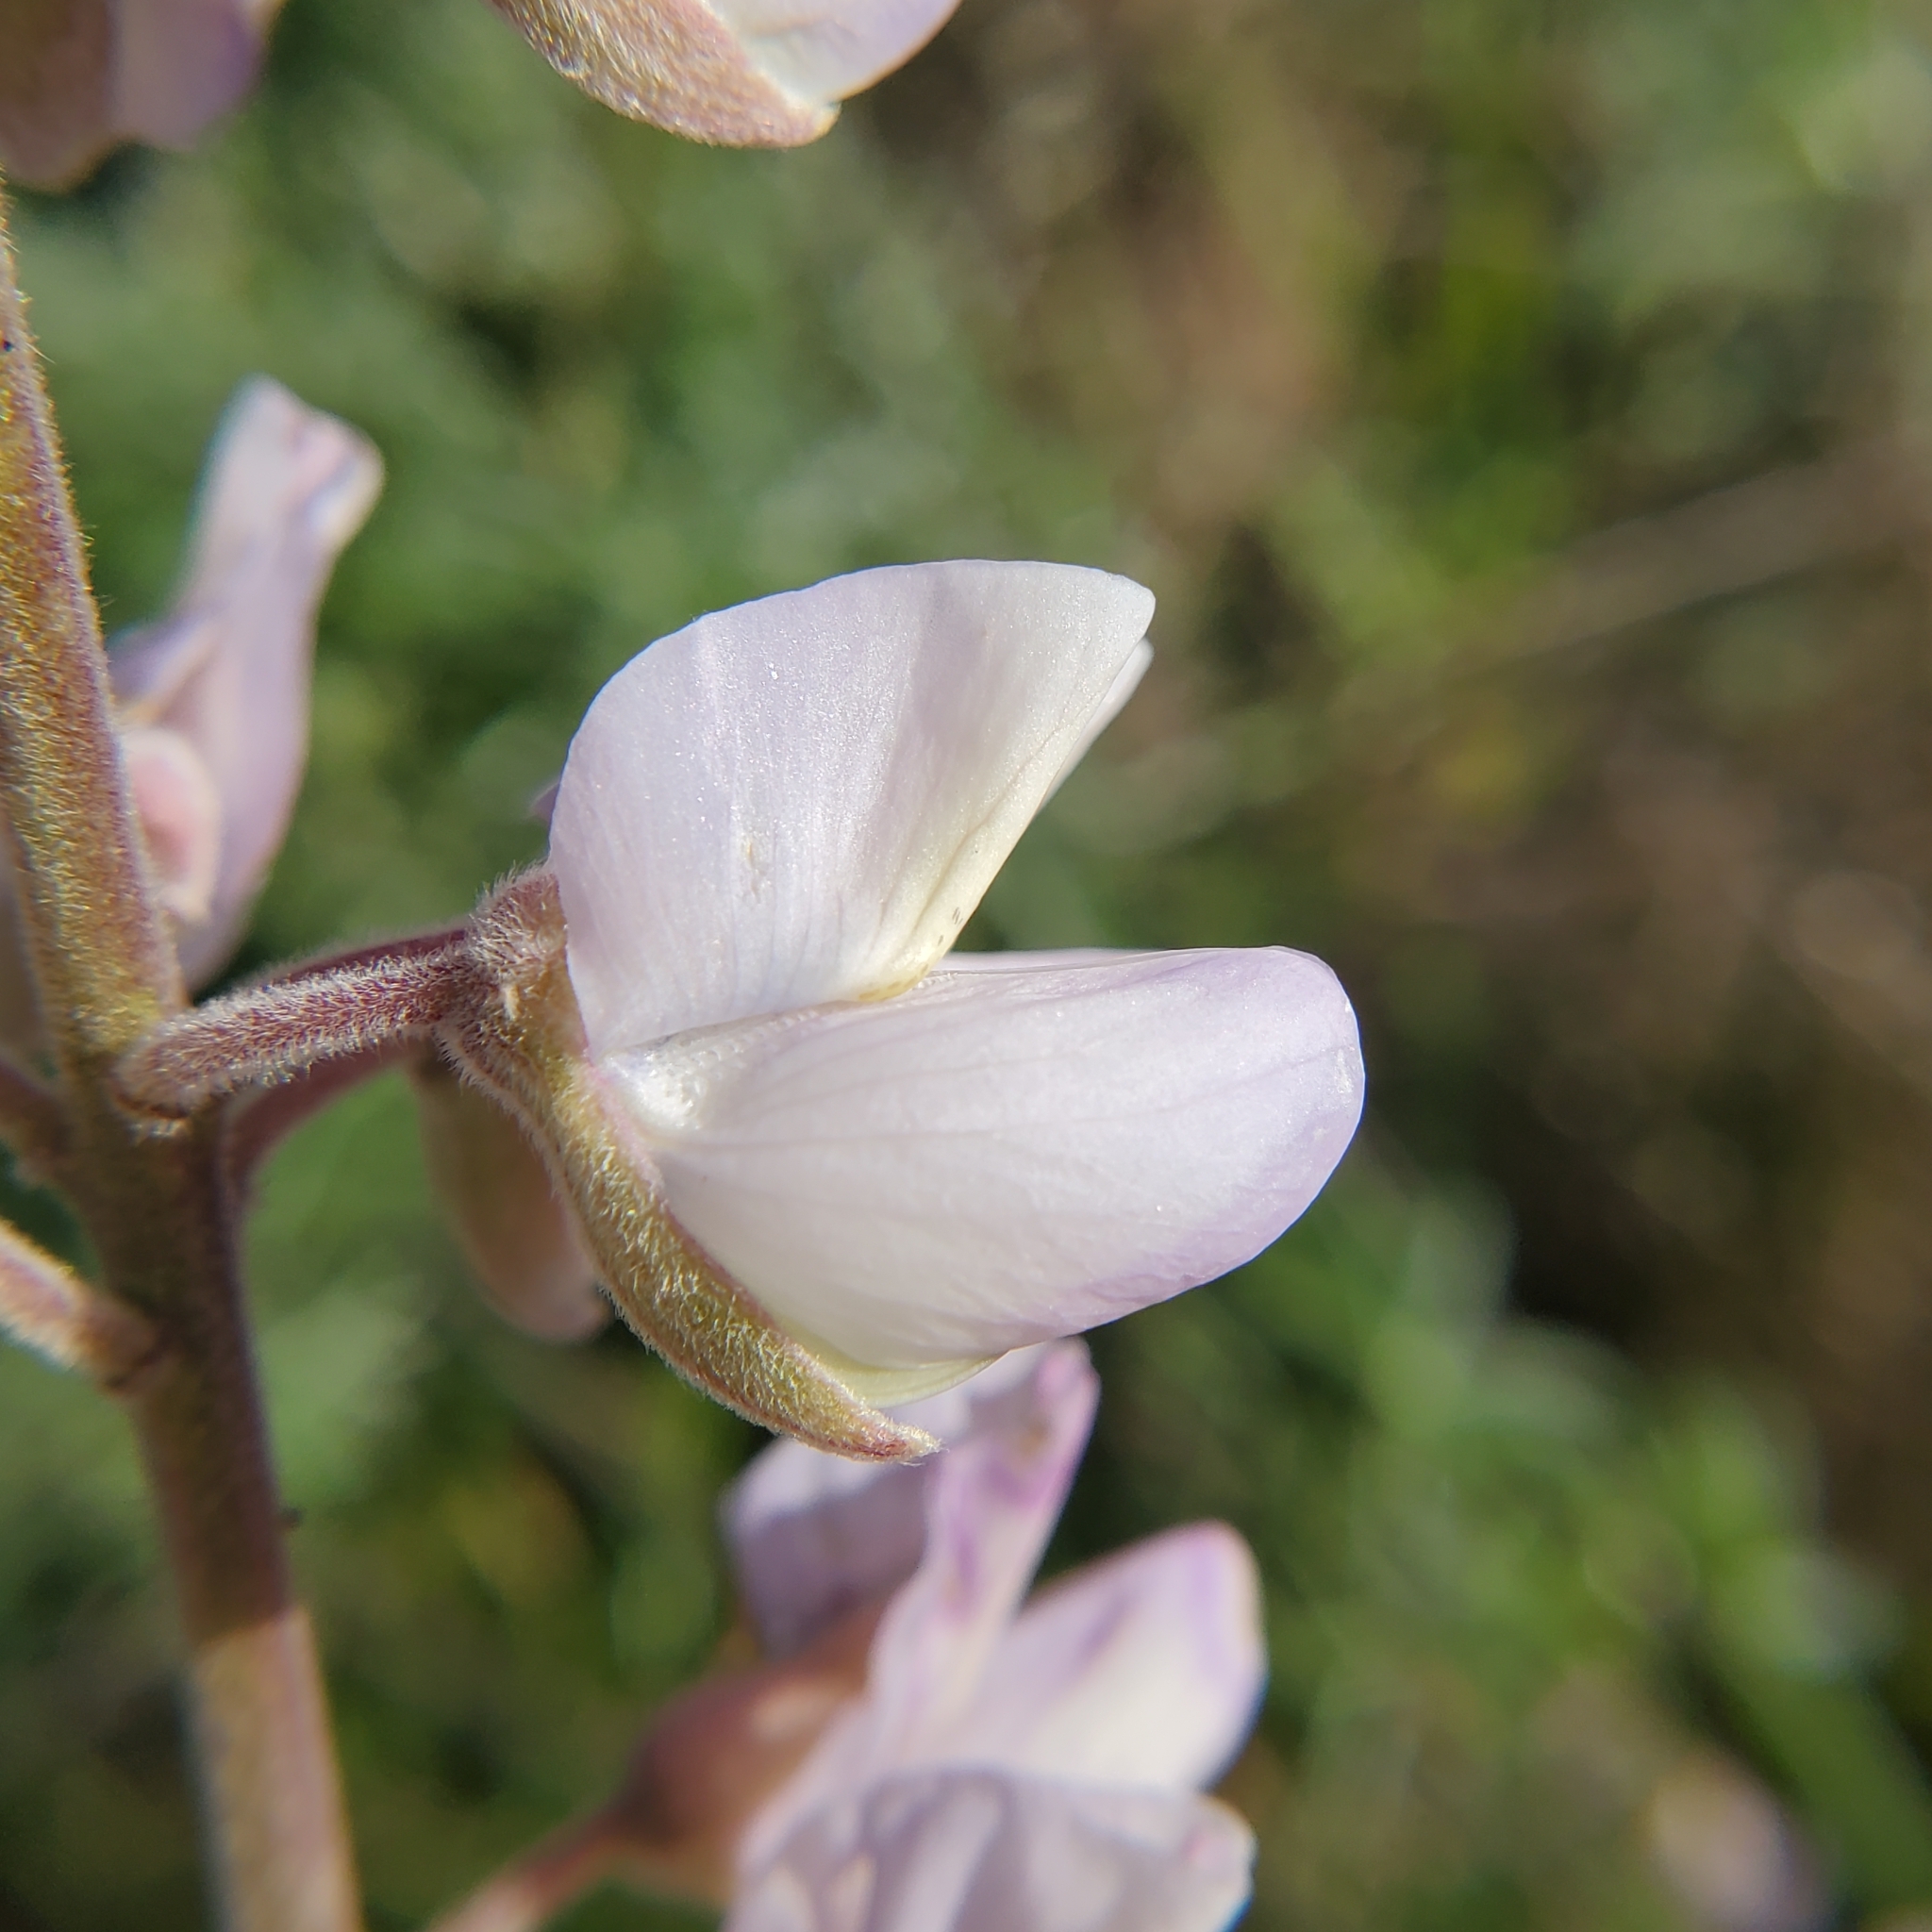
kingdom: Plantae
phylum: Tracheophyta
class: Magnoliopsida
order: Fabales
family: Fabaceae
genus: Lupinus
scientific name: Lupinus longifolius
